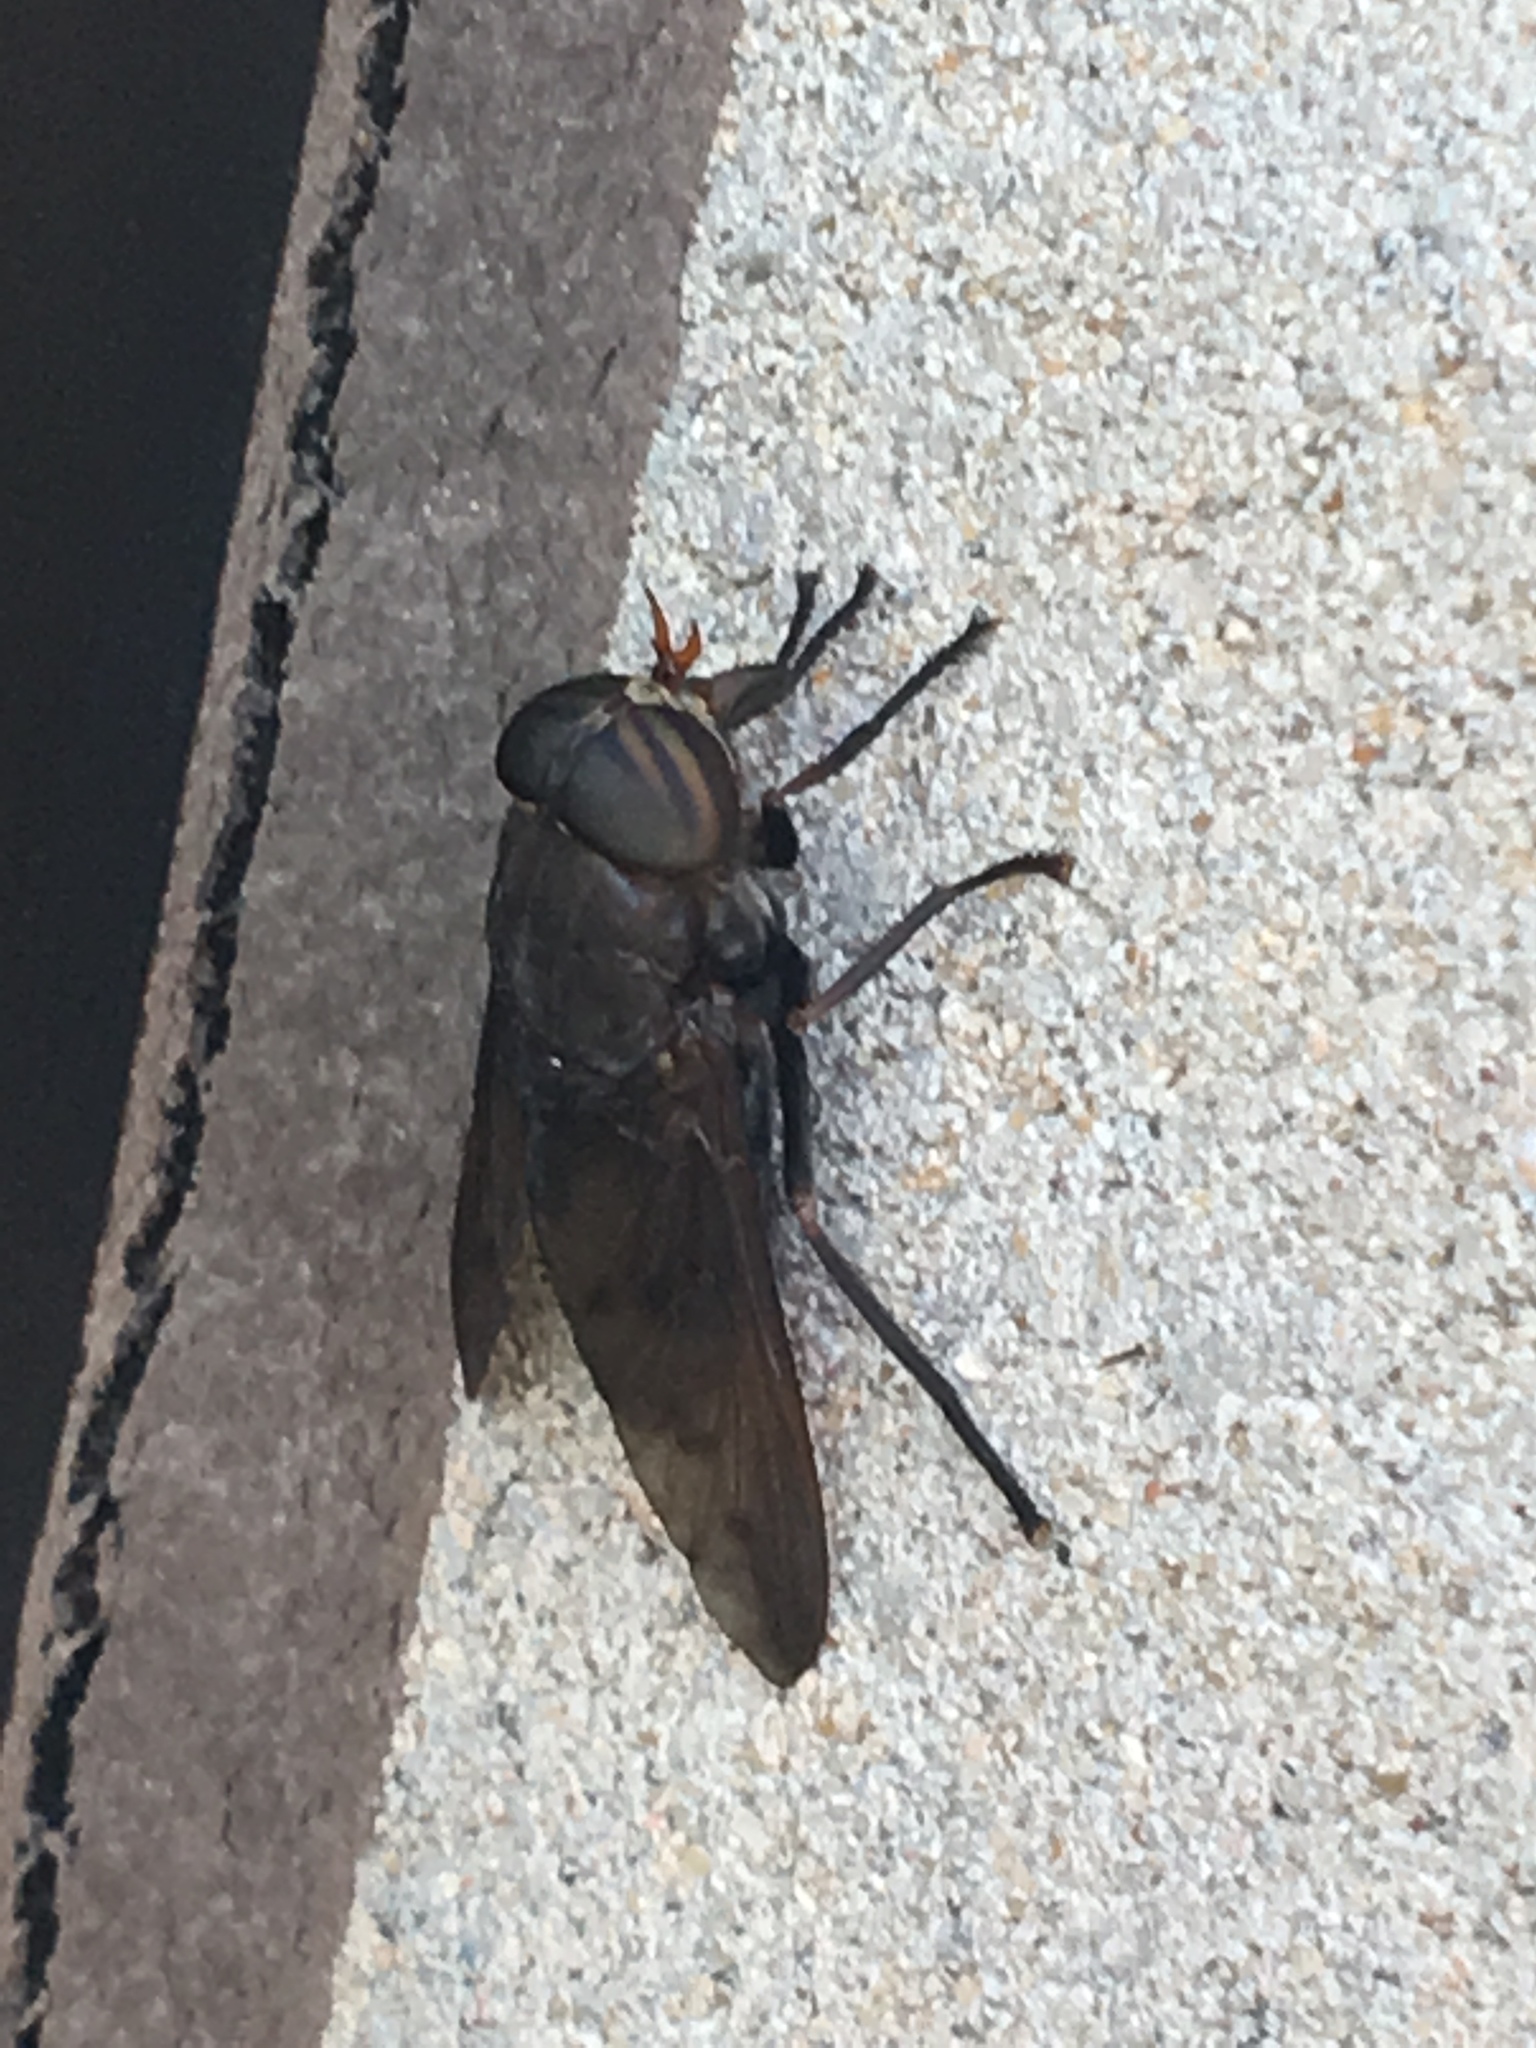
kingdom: Animalia
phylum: Arthropoda
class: Insecta
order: Diptera
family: Tabanidae
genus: Tabanus
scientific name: Tabanus proximus
